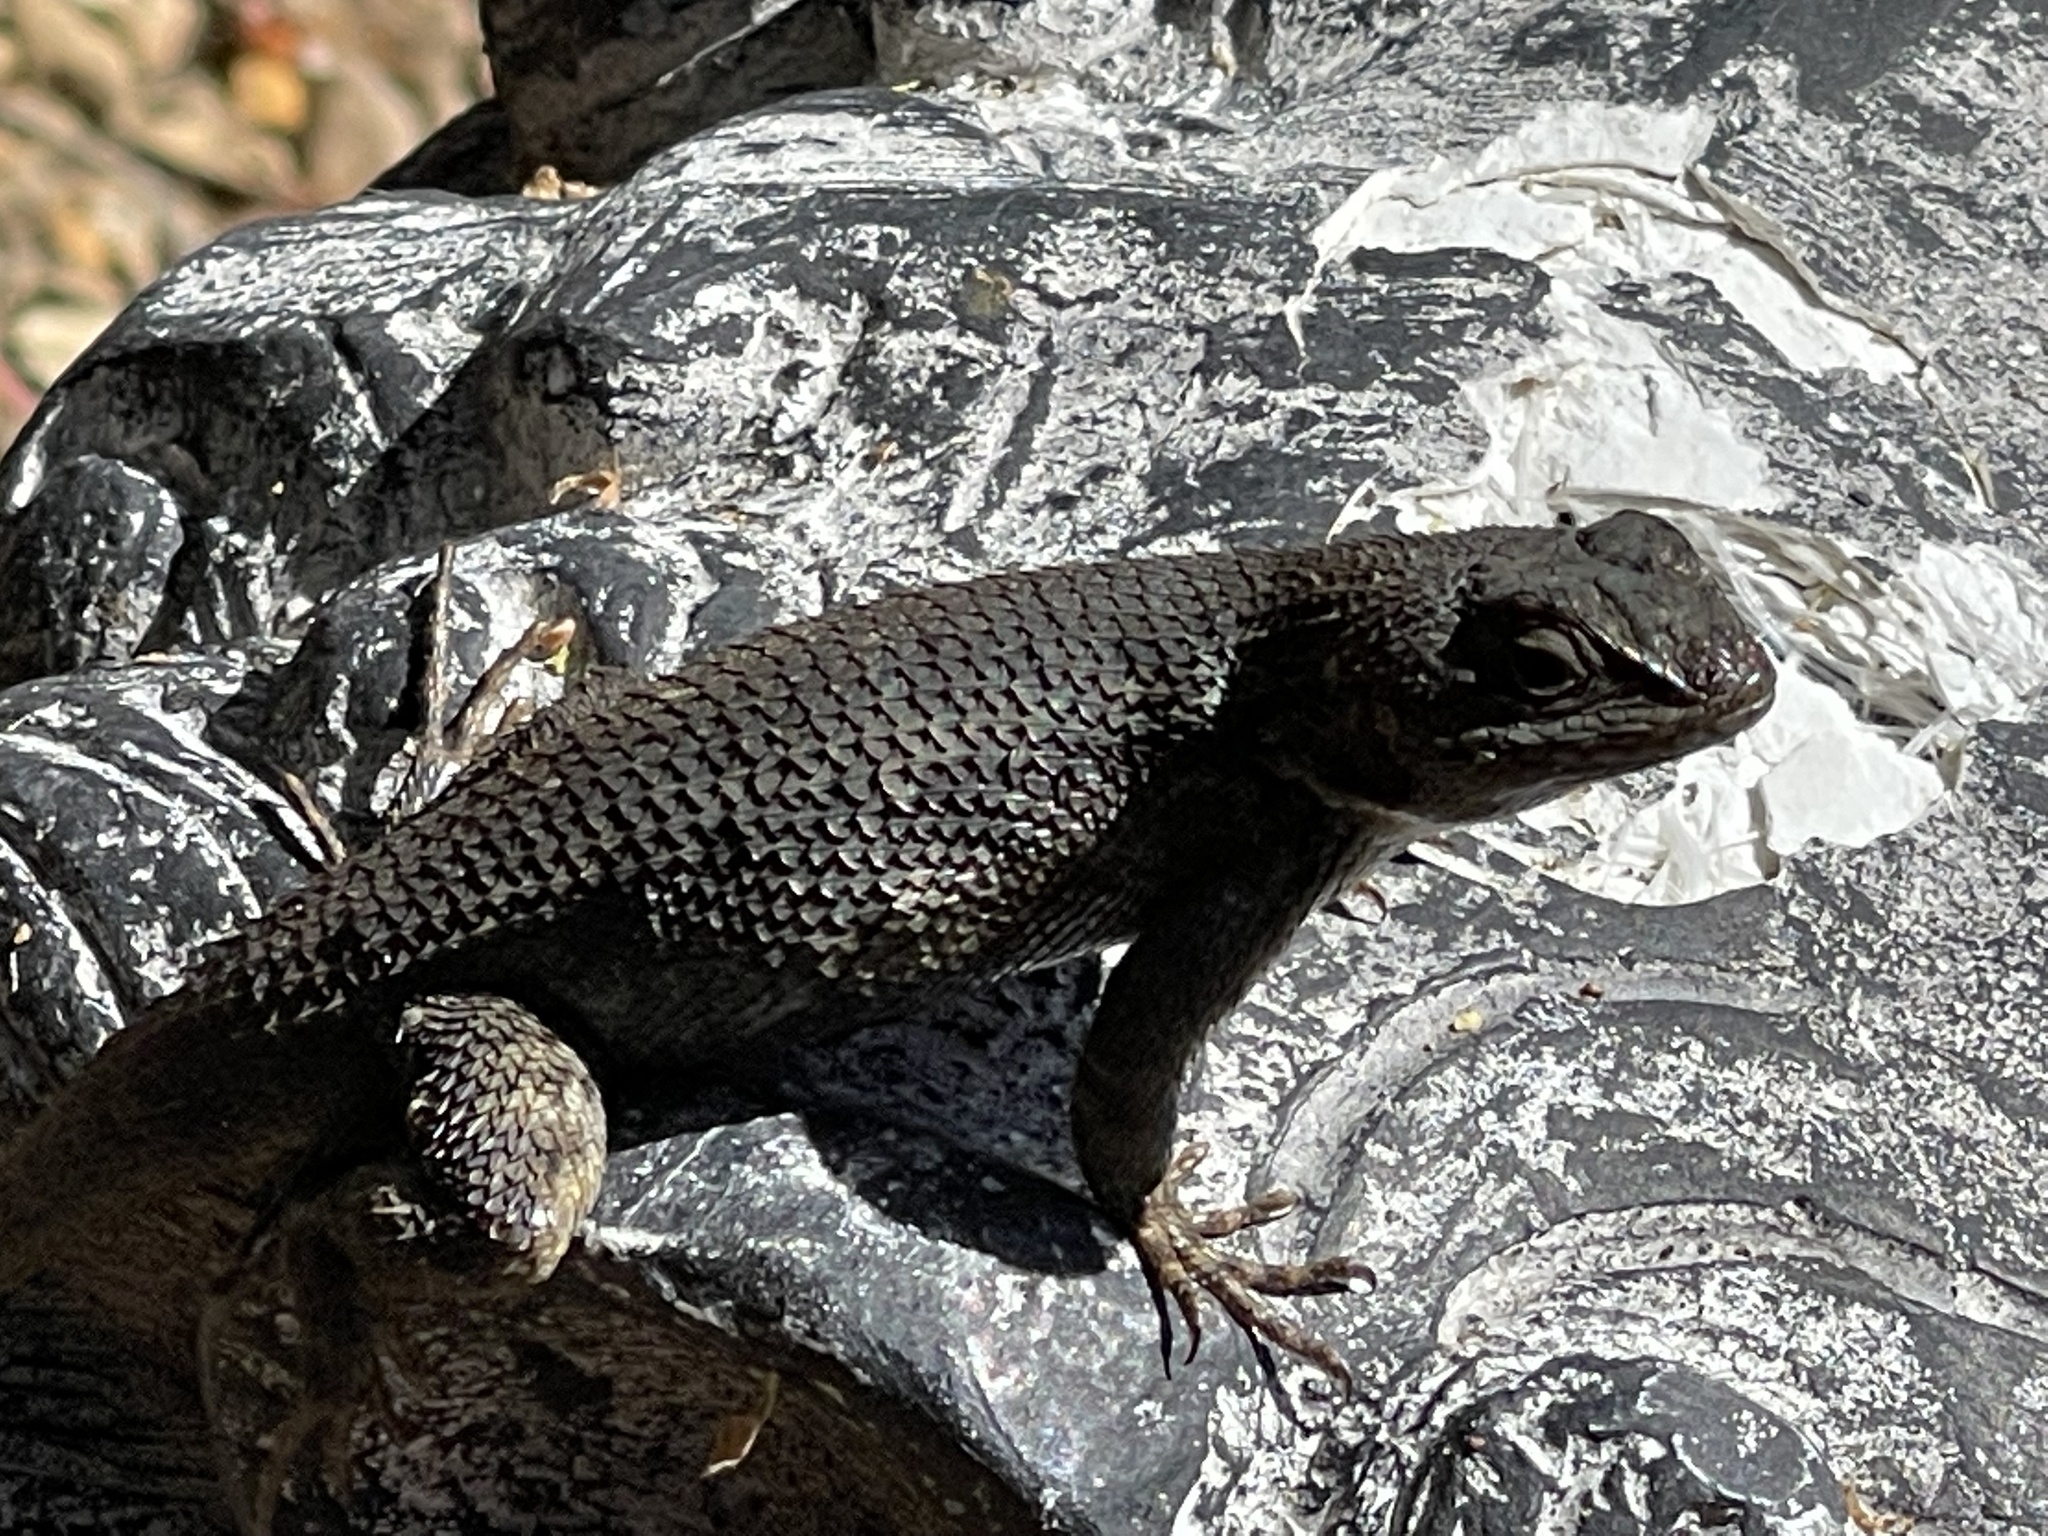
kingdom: Animalia
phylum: Chordata
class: Squamata
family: Phrynosomatidae
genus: Sceloporus
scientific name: Sceloporus occidentalis
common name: Western fence lizard
